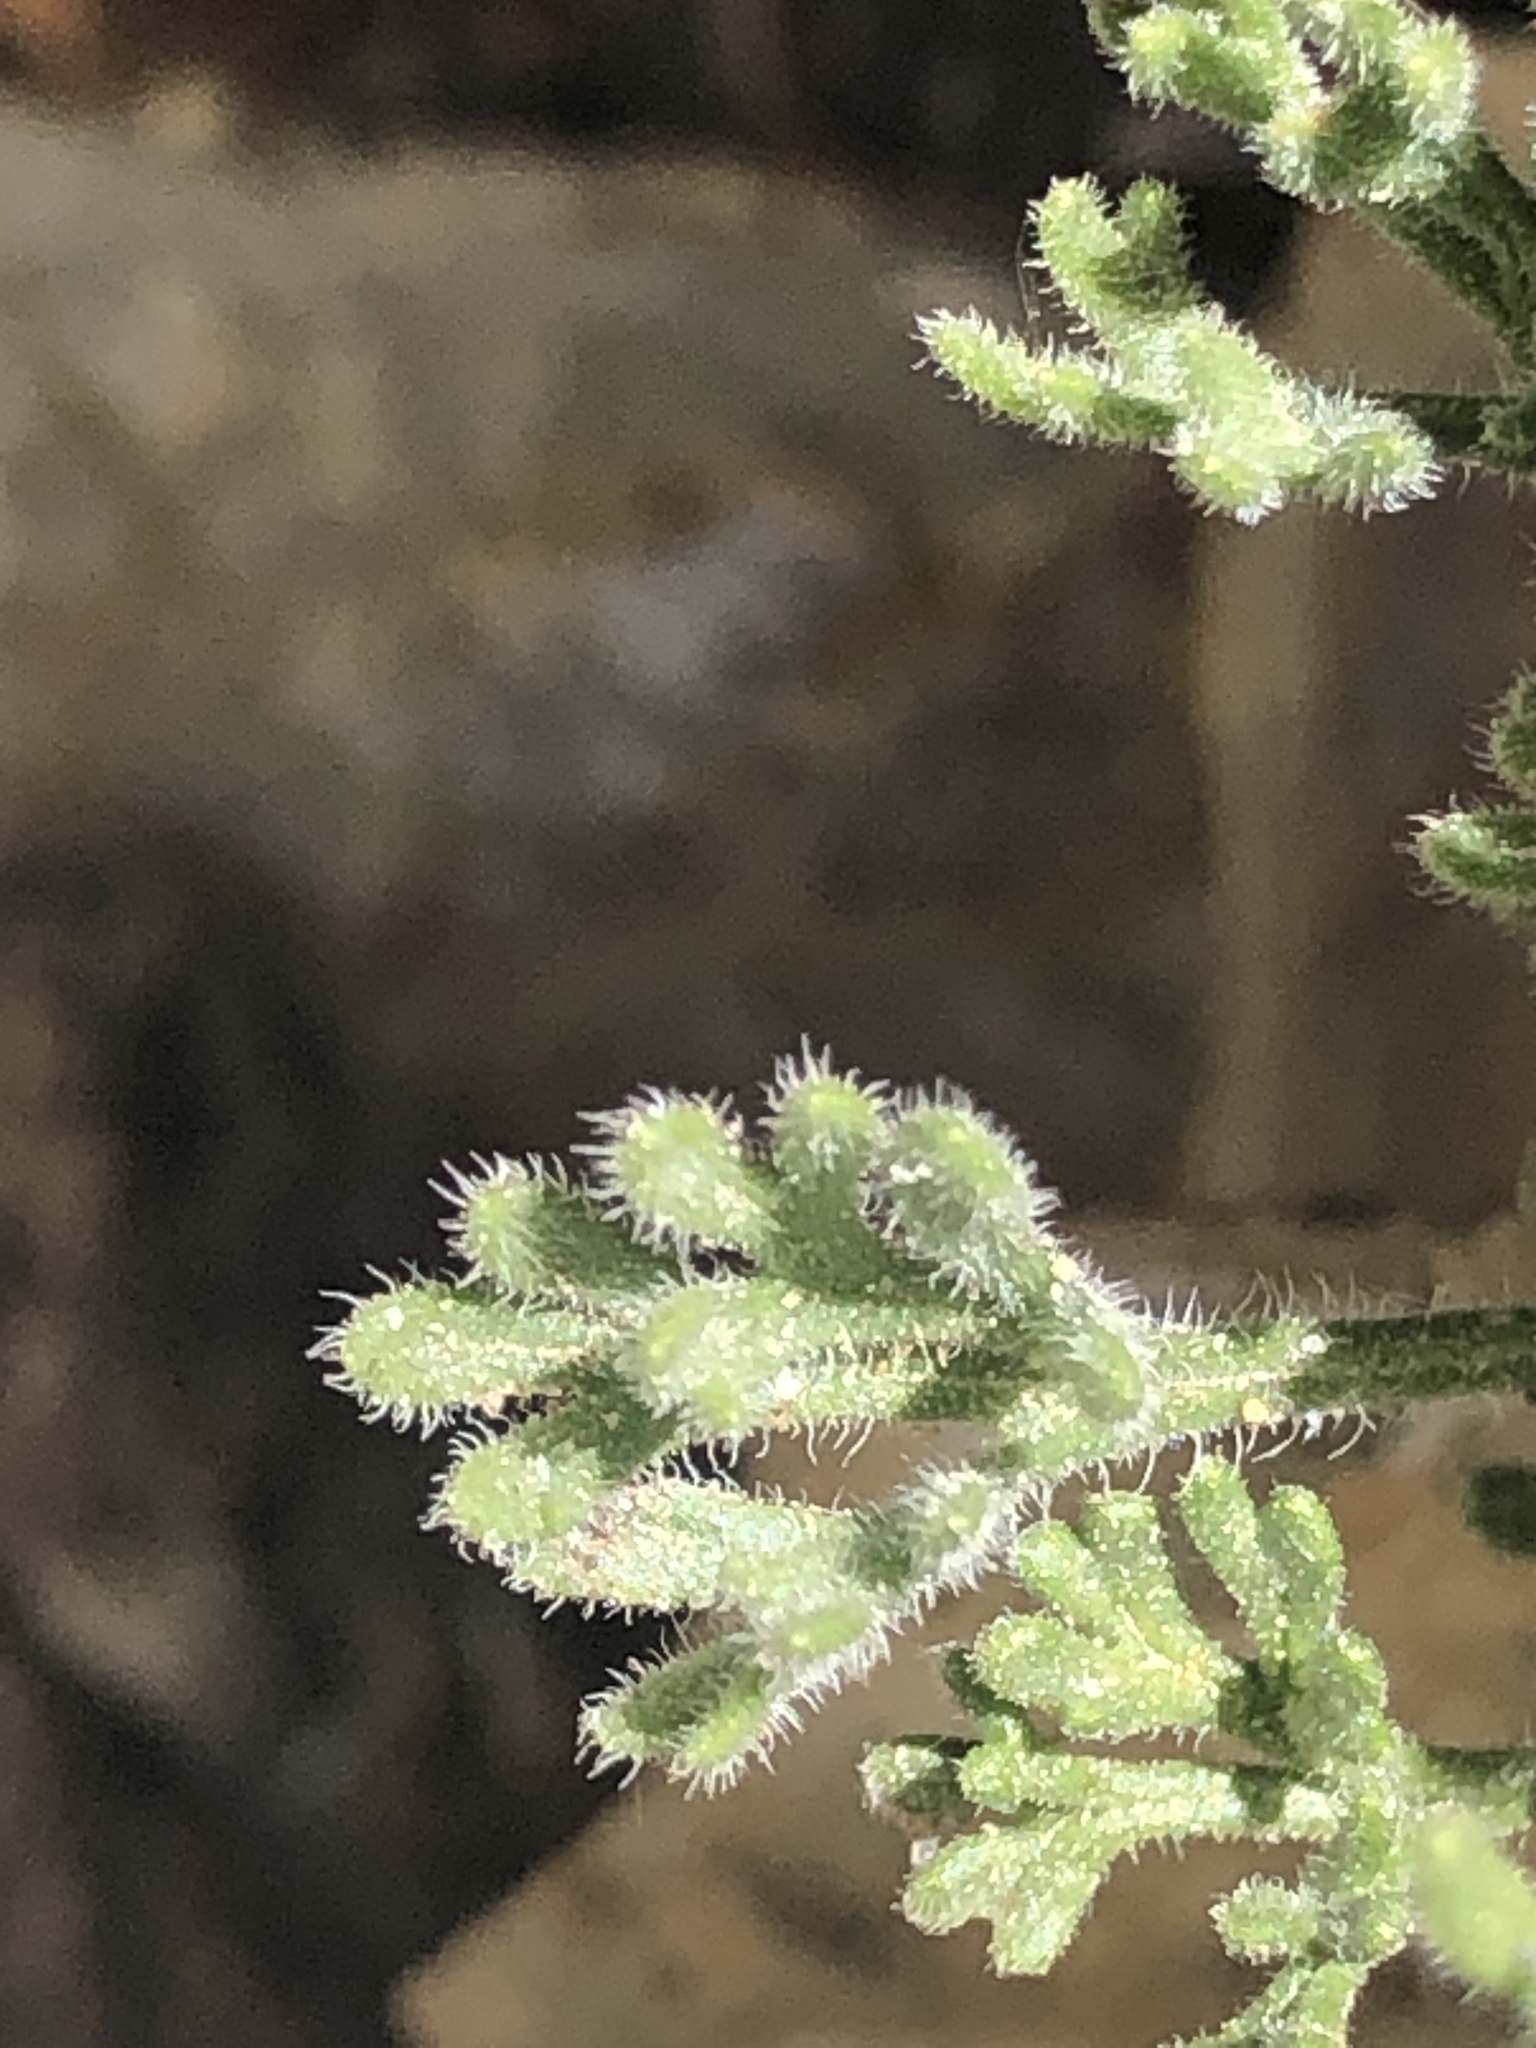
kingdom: Plantae
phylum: Tracheophyta
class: Magnoliopsida
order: Asterales
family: Asteraceae
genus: Erigeron
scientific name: Erigeron compositus
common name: Dwarf mountain fleabane
